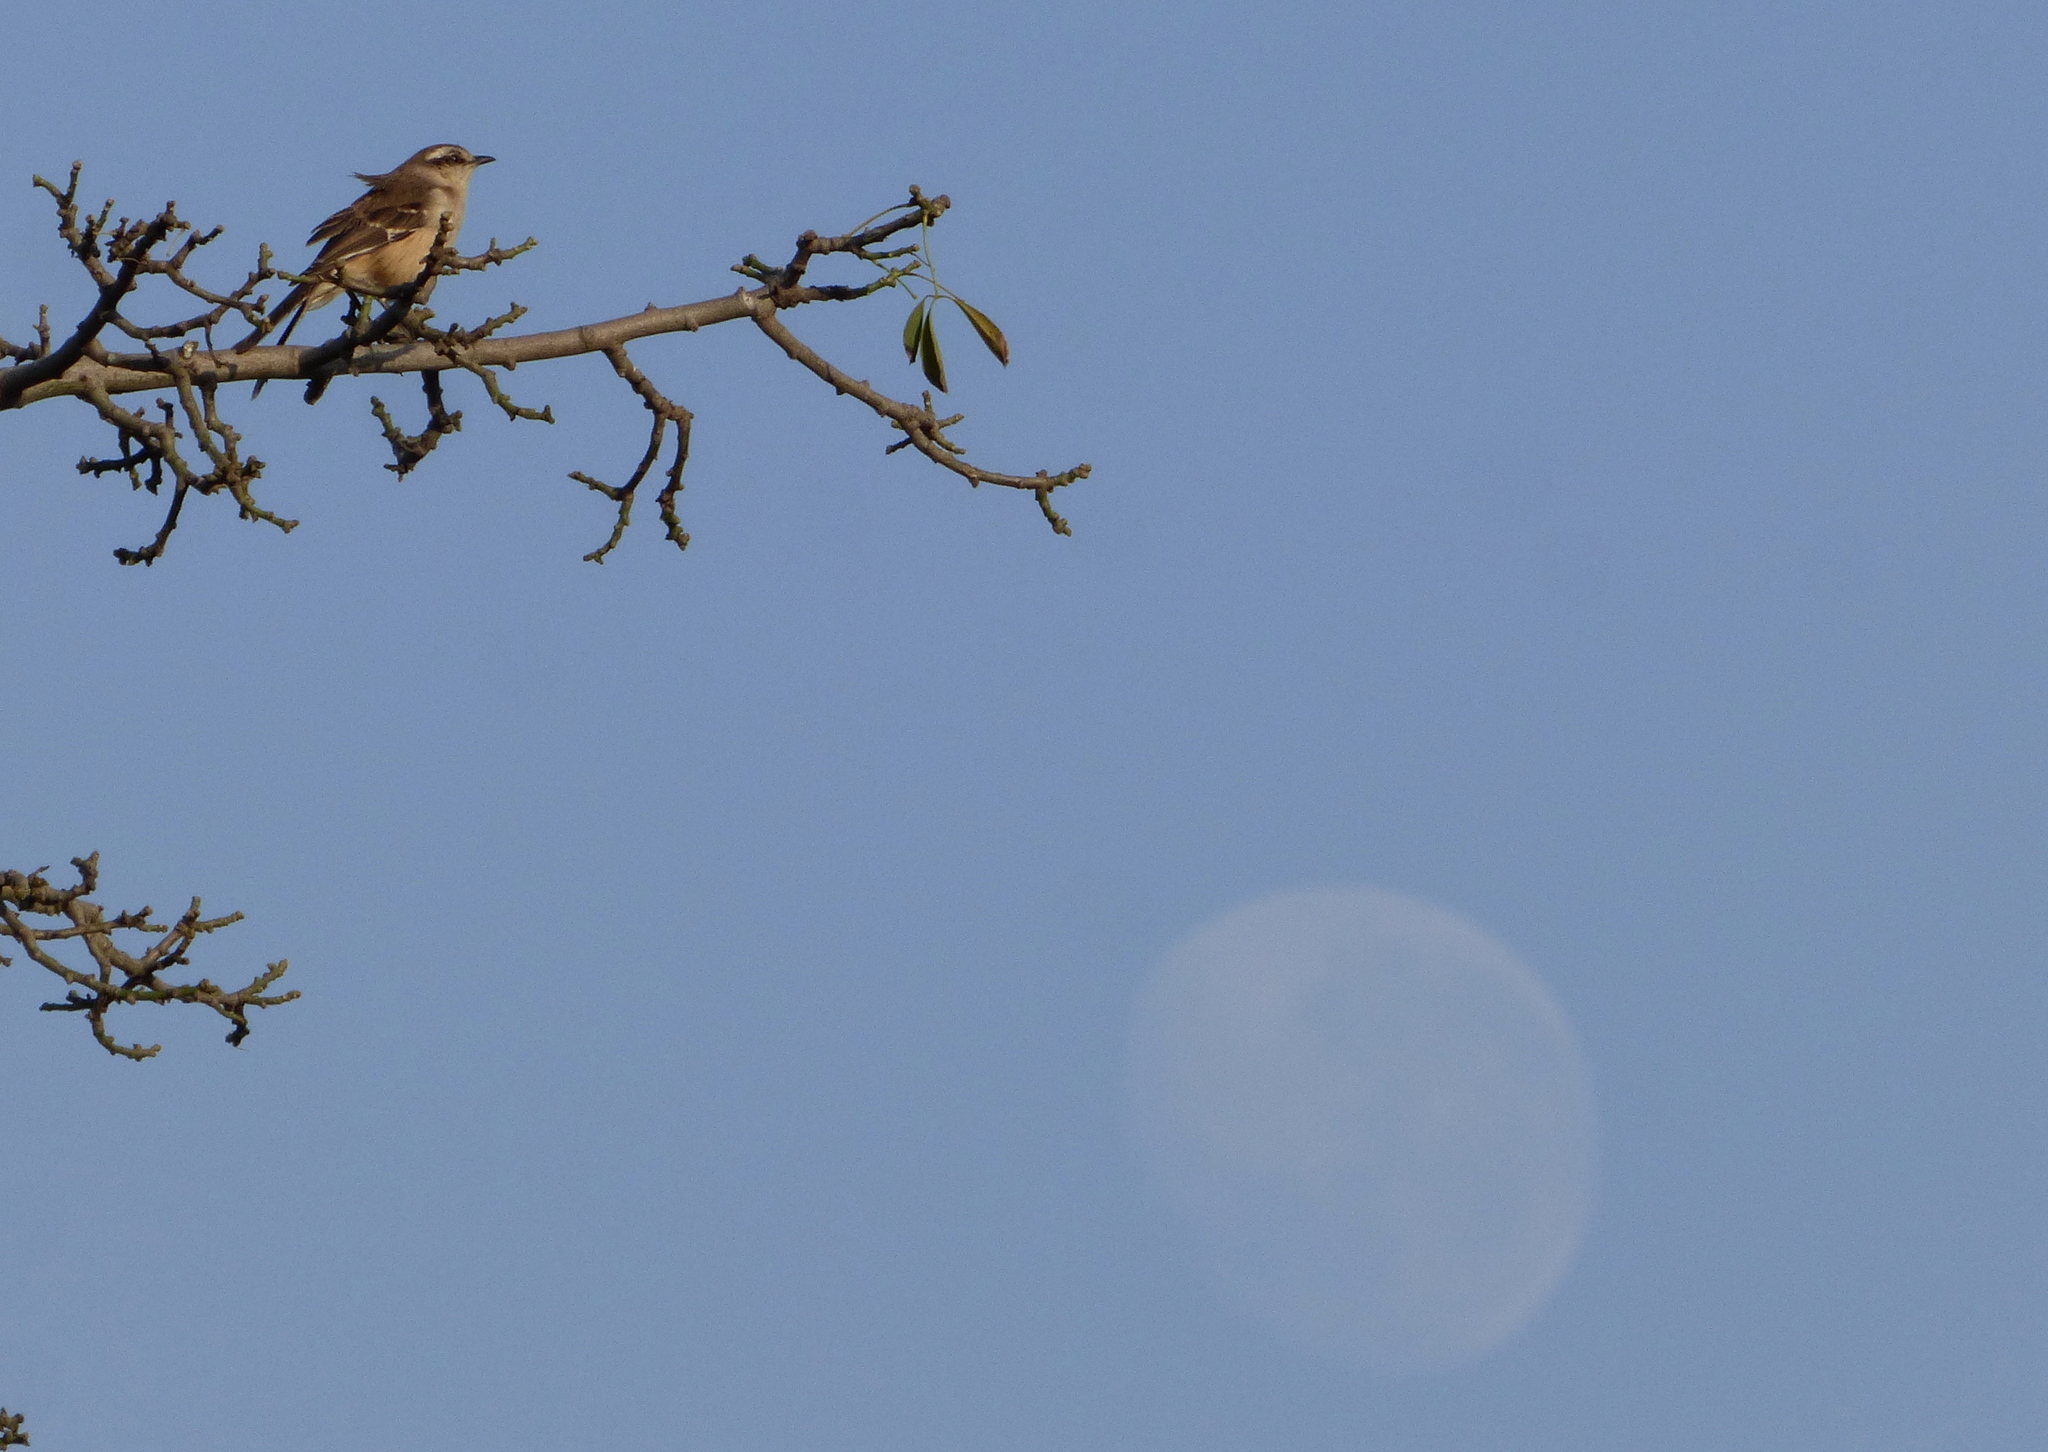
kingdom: Animalia
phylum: Chordata
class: Aves
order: Passeriformes
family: Mimidae
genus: Mimus
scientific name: Mimus saturninus
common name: Chalk-browed mockingbird
